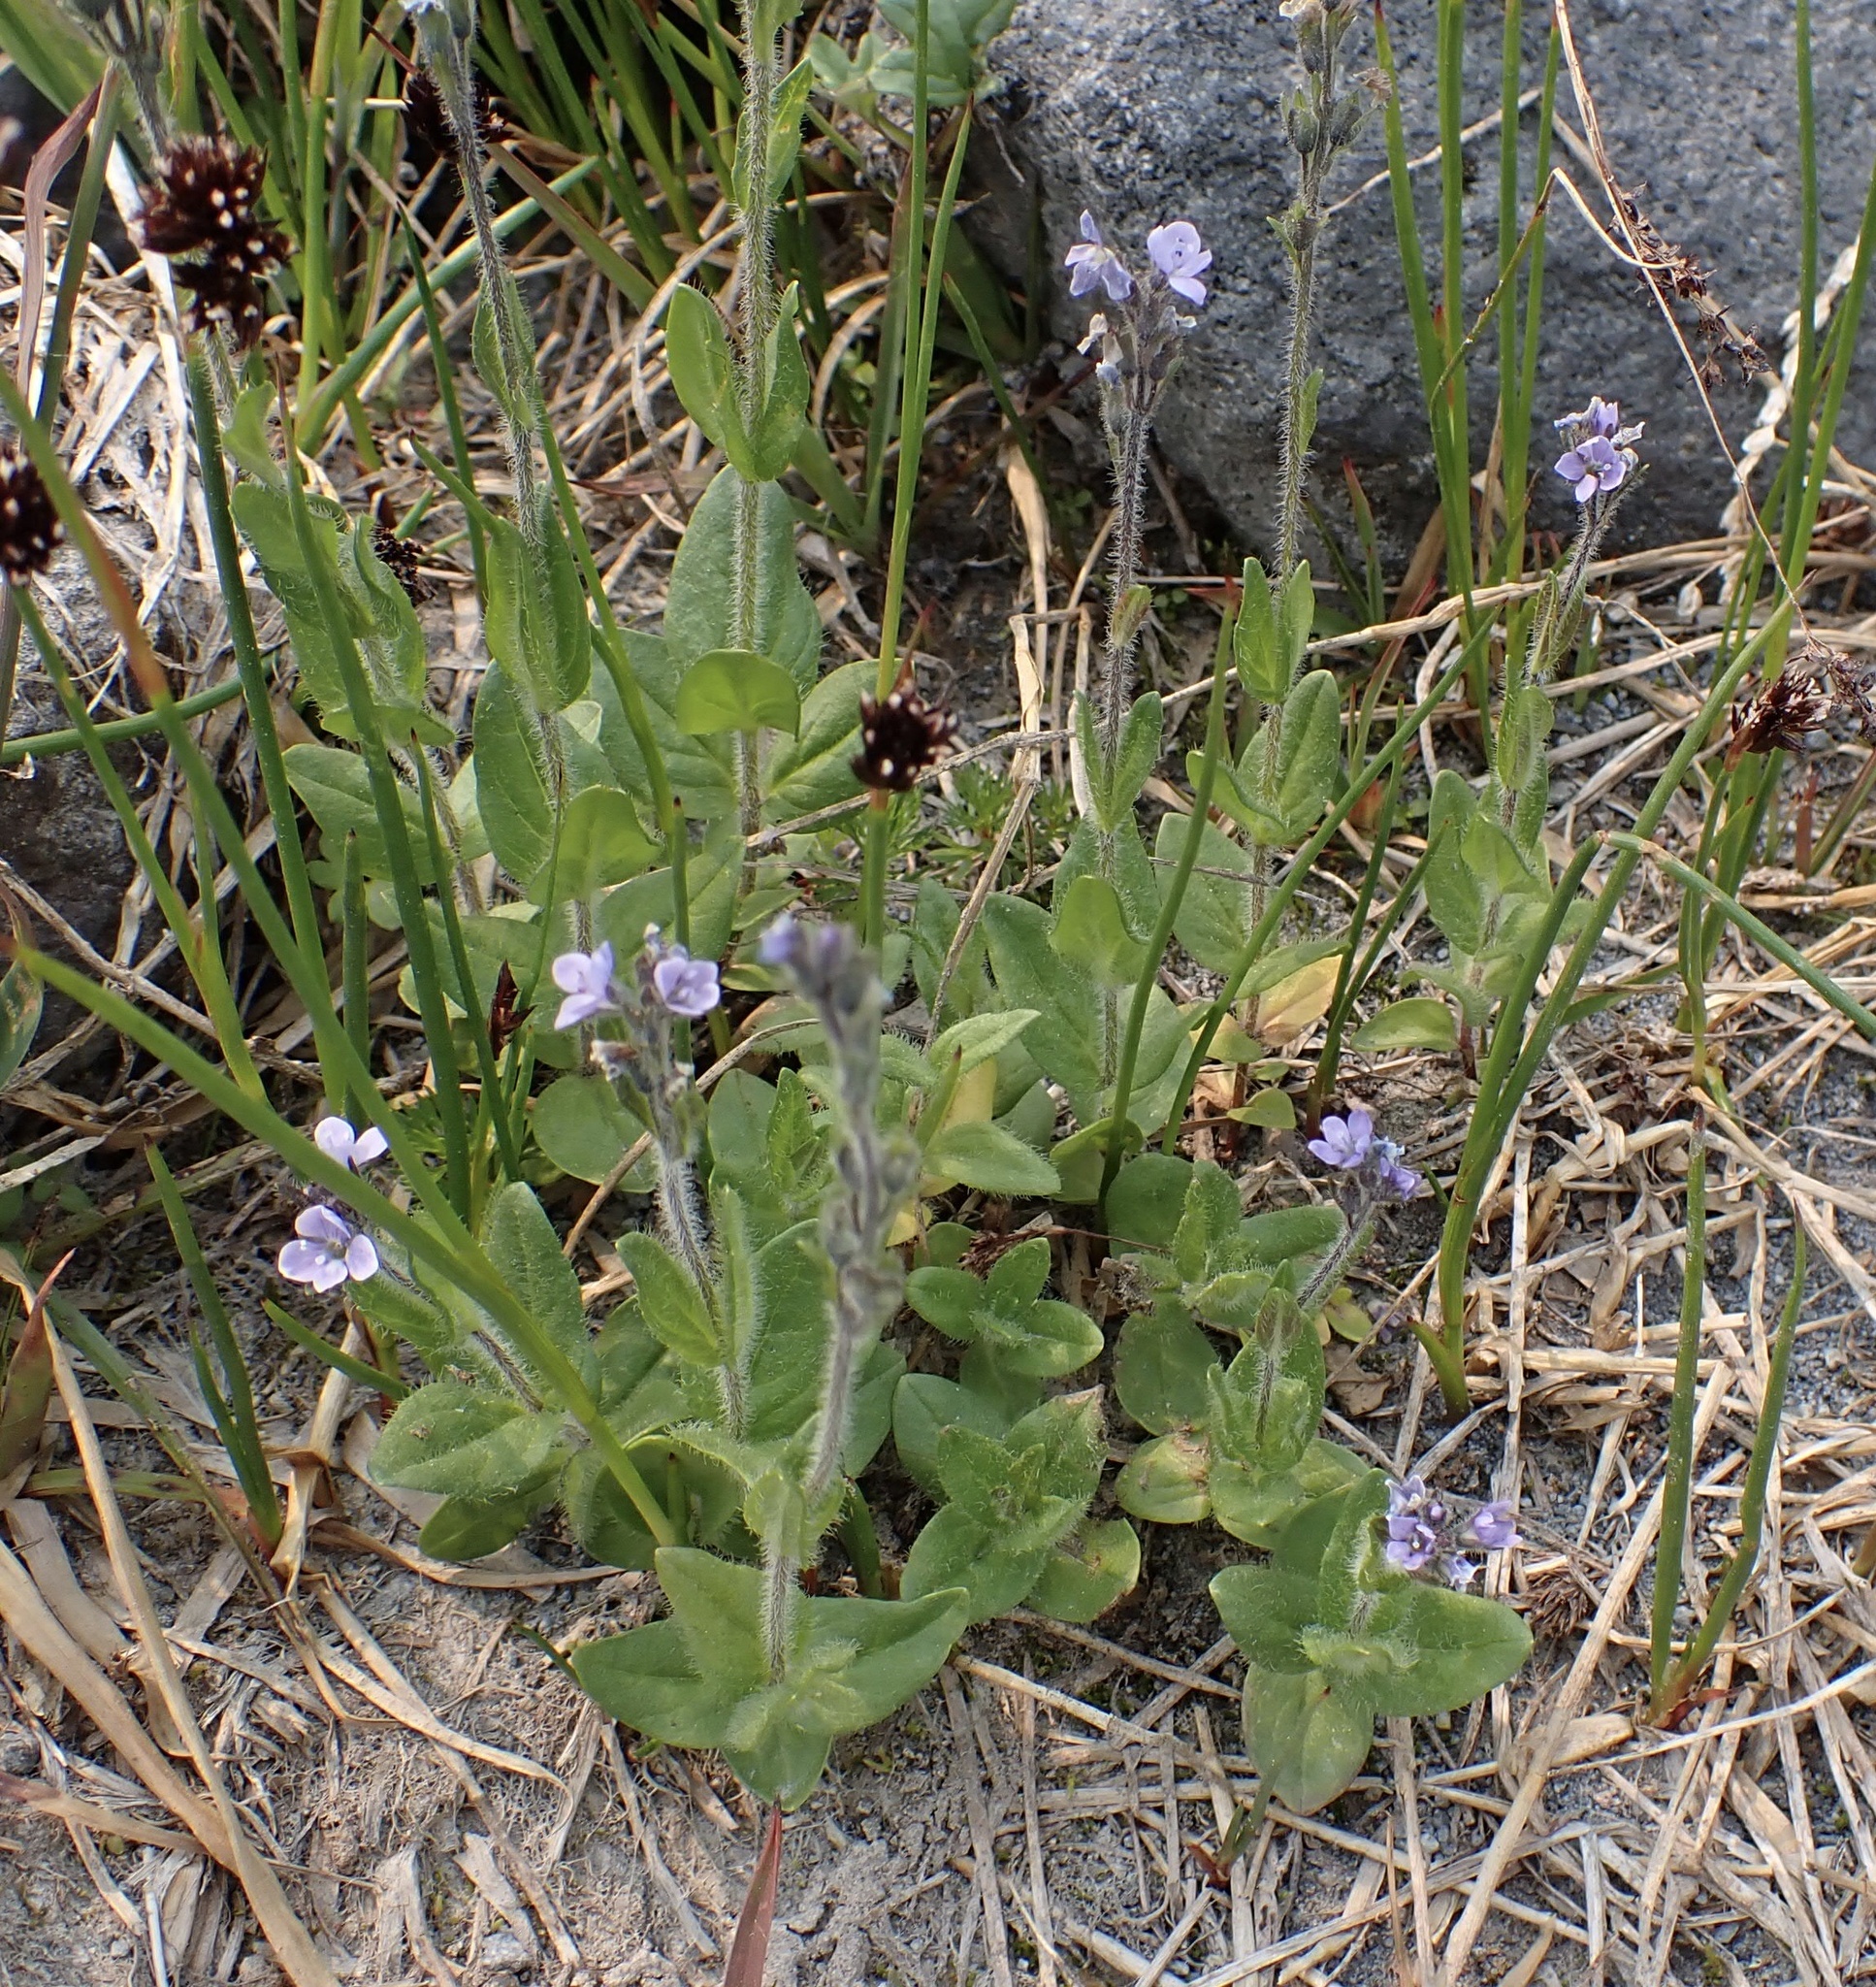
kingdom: Plantae
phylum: Tracheophyta
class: Magnoliopsida
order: Lamiales
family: Plantaginaceae
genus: Veronica
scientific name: Veronica wormskjoldii
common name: American alpine speedwell
